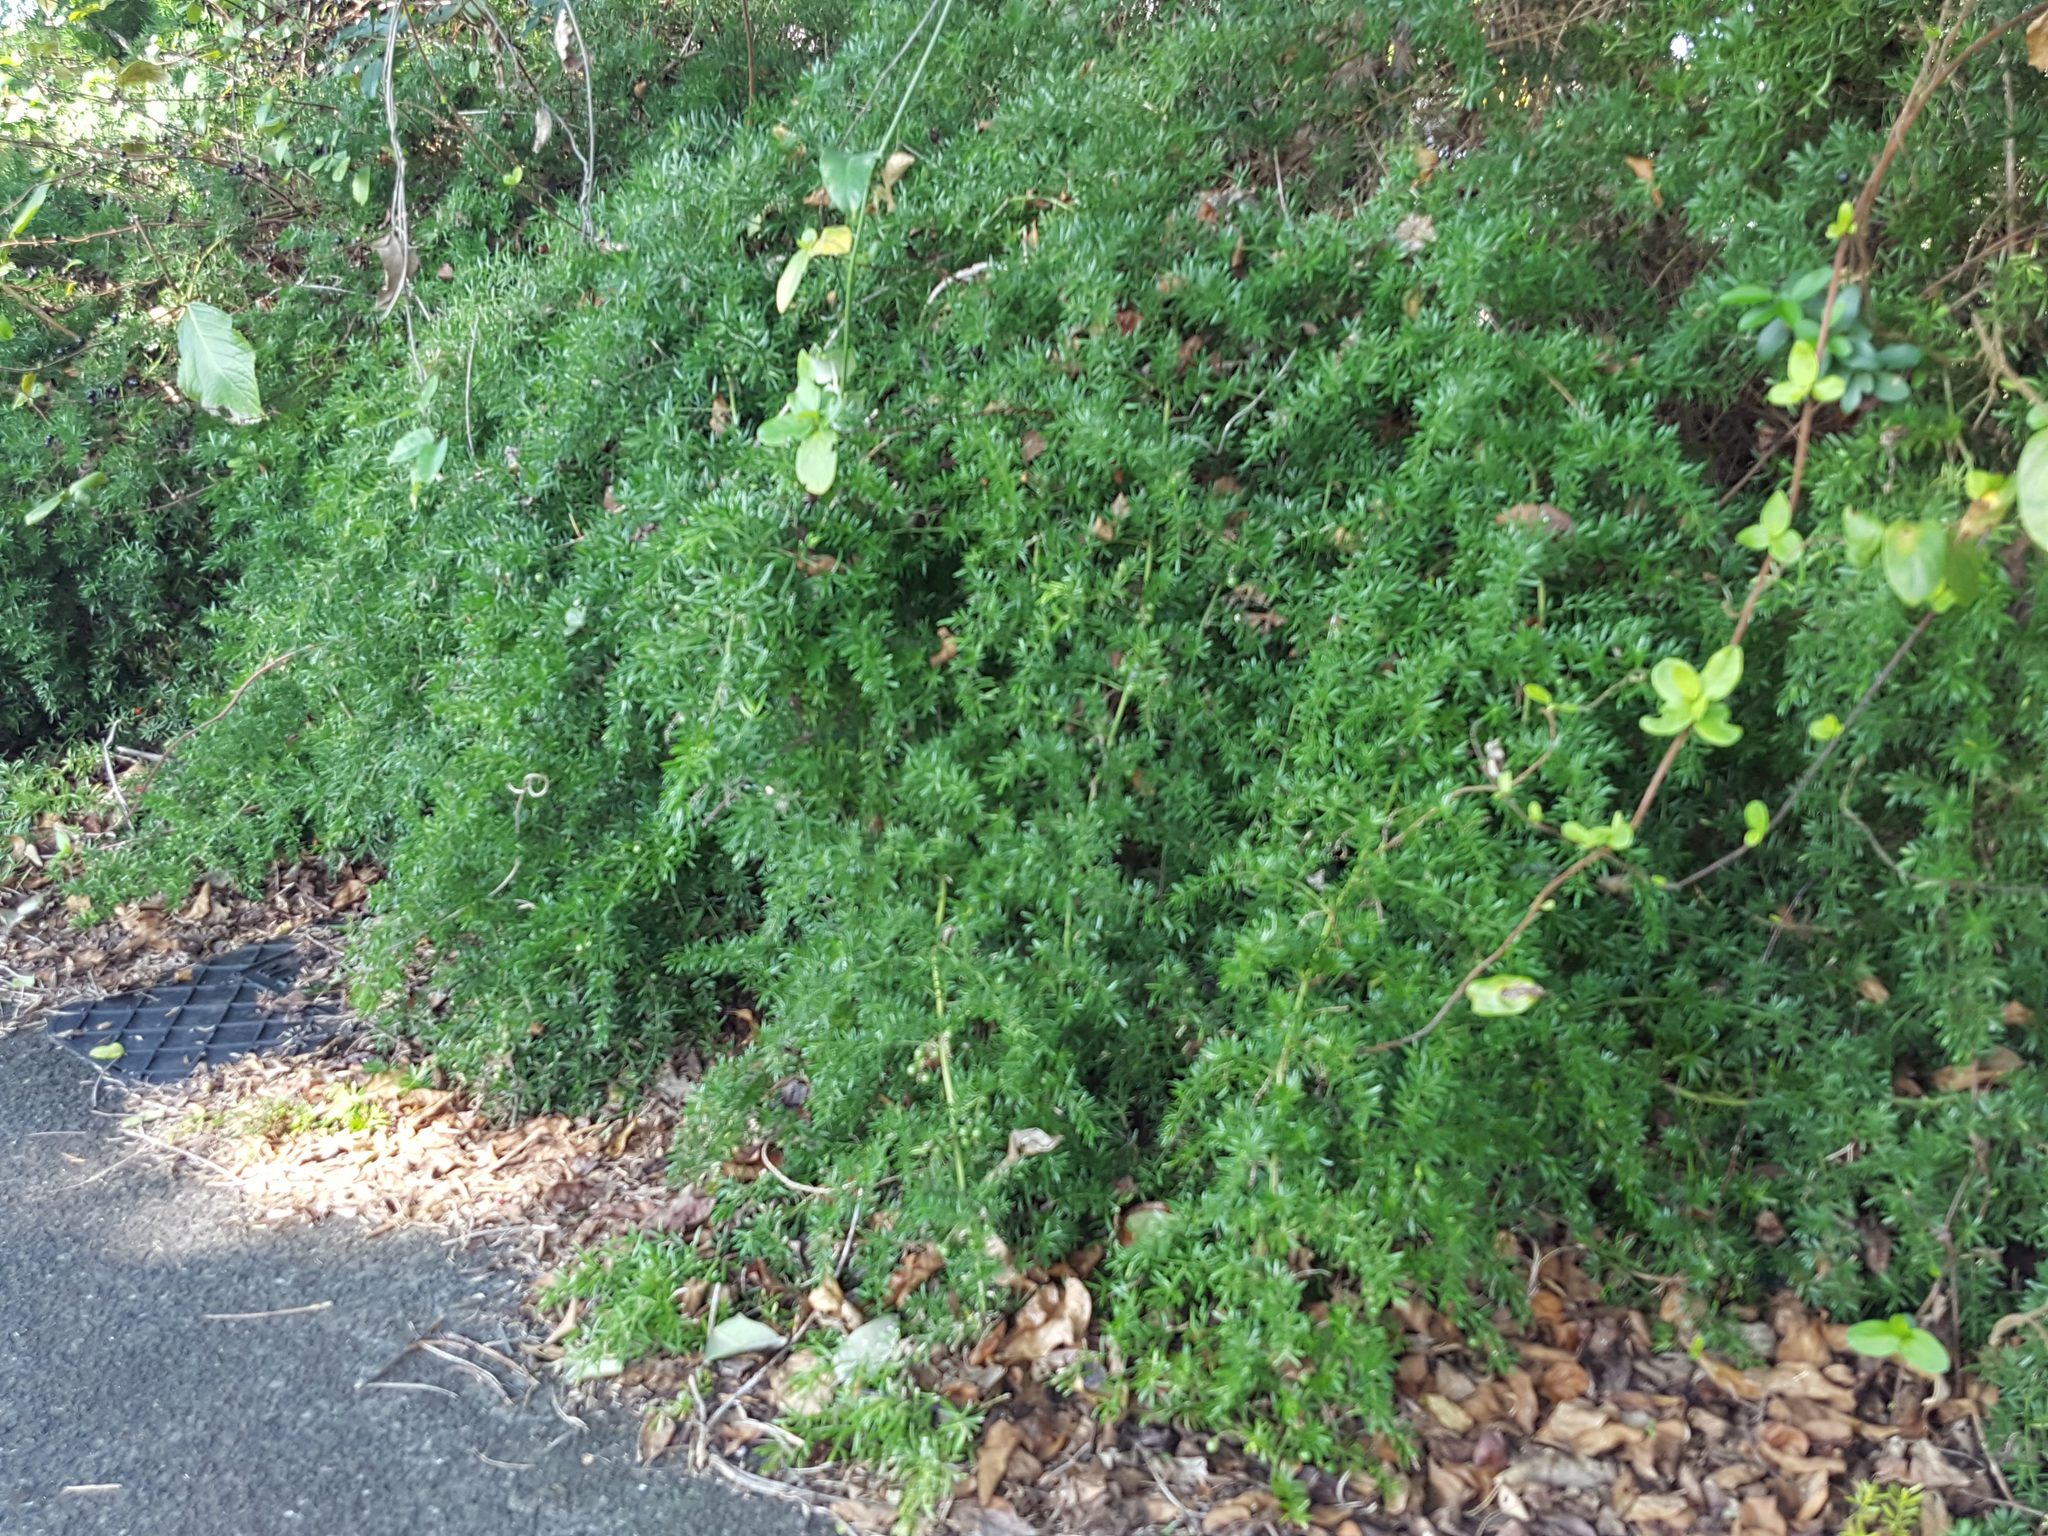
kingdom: Plantae
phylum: Tracheophyta
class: Liliopsida
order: Asparagales
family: Asparagaceae
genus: Asparagus
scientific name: Asparagus aethiopicus
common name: Sprenger's asparagus fern
